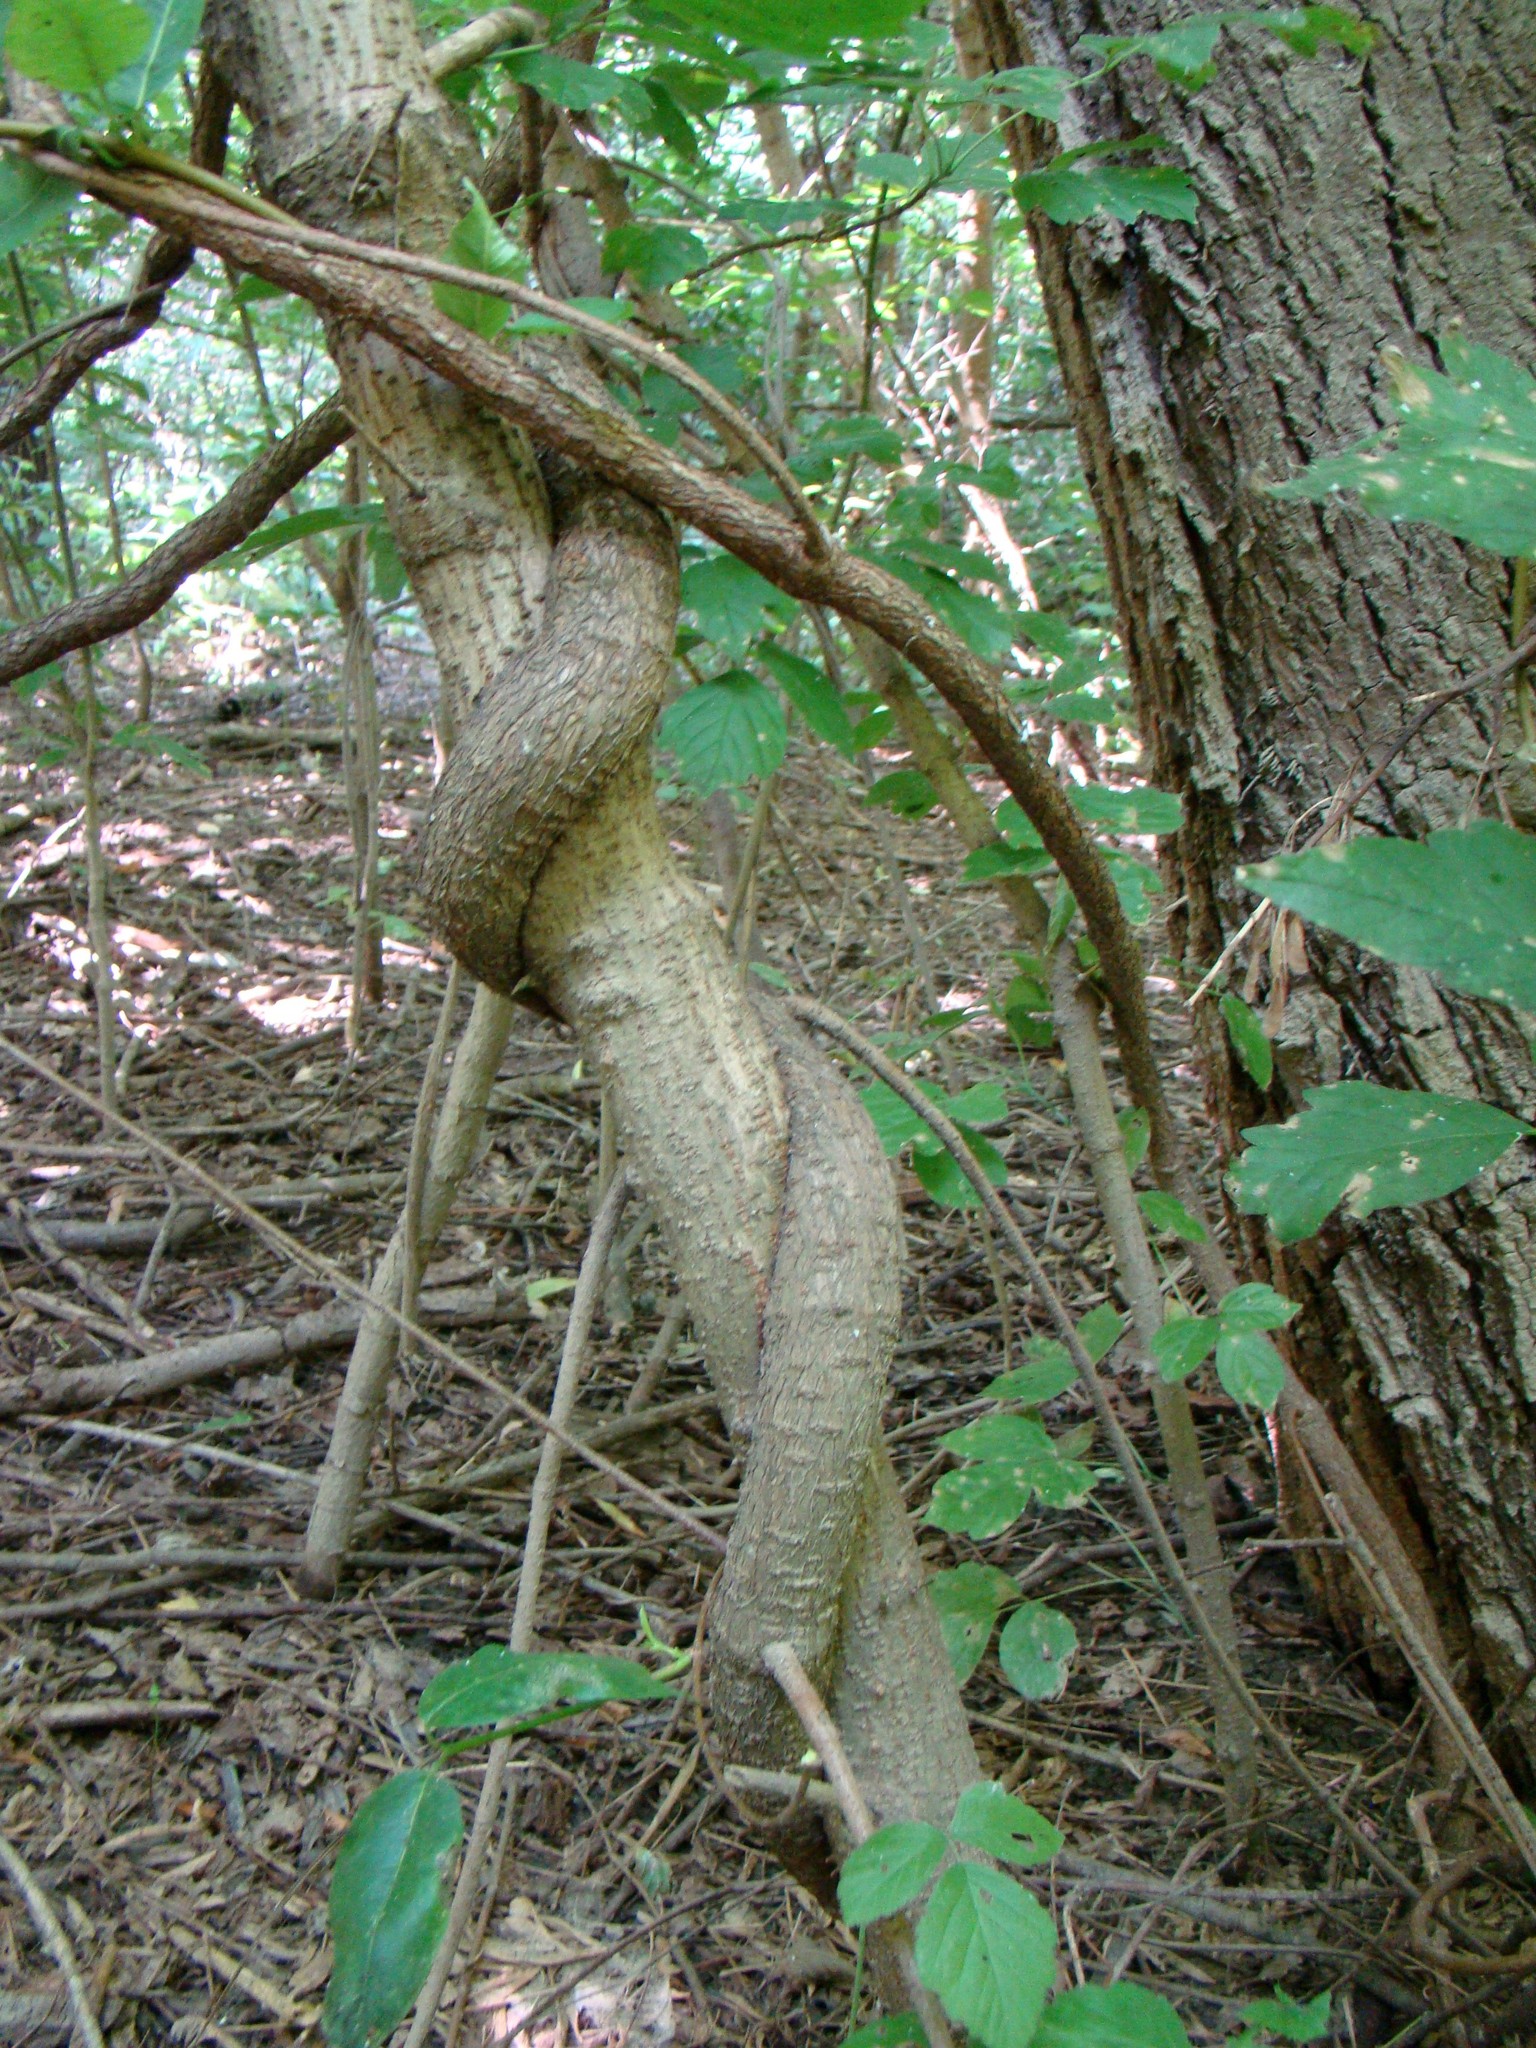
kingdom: Plantae
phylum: Tracheophyta
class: Magnoliopsida
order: Gentianales
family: Apocynaceae
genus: Periploca
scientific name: Periploca graeca
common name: Silkvine
